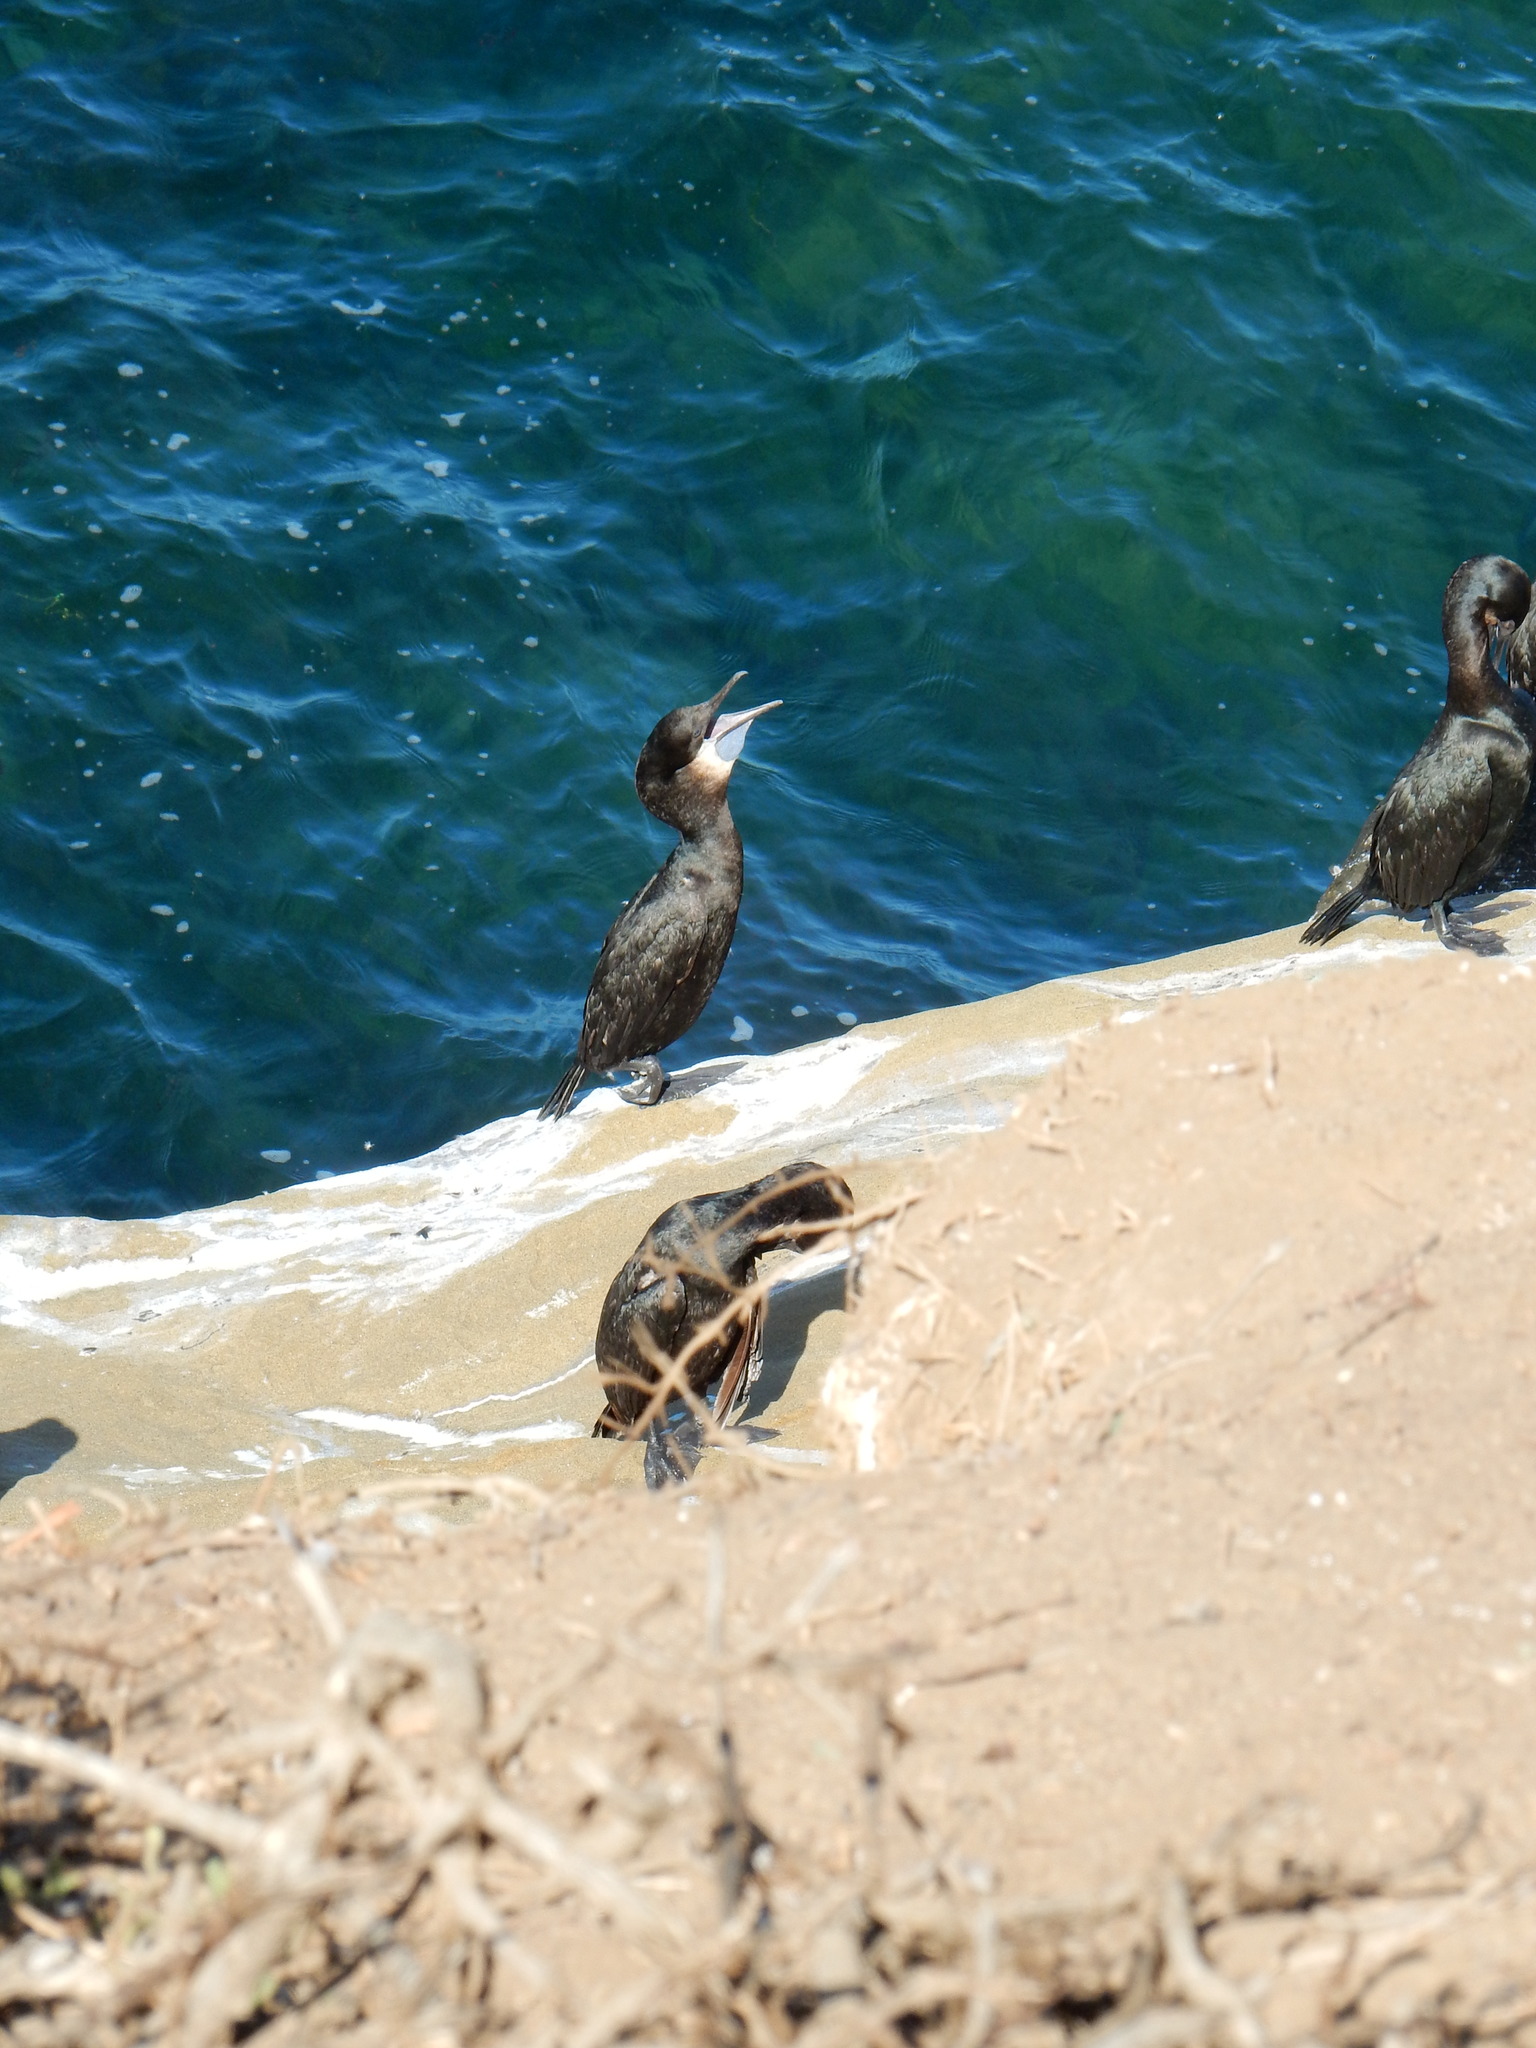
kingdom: Animalia
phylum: Chordata
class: Aves
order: Suliformes
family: Phalacrocoracidae
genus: Urile
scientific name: Urile penicillatus
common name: Brandt's cormorant
